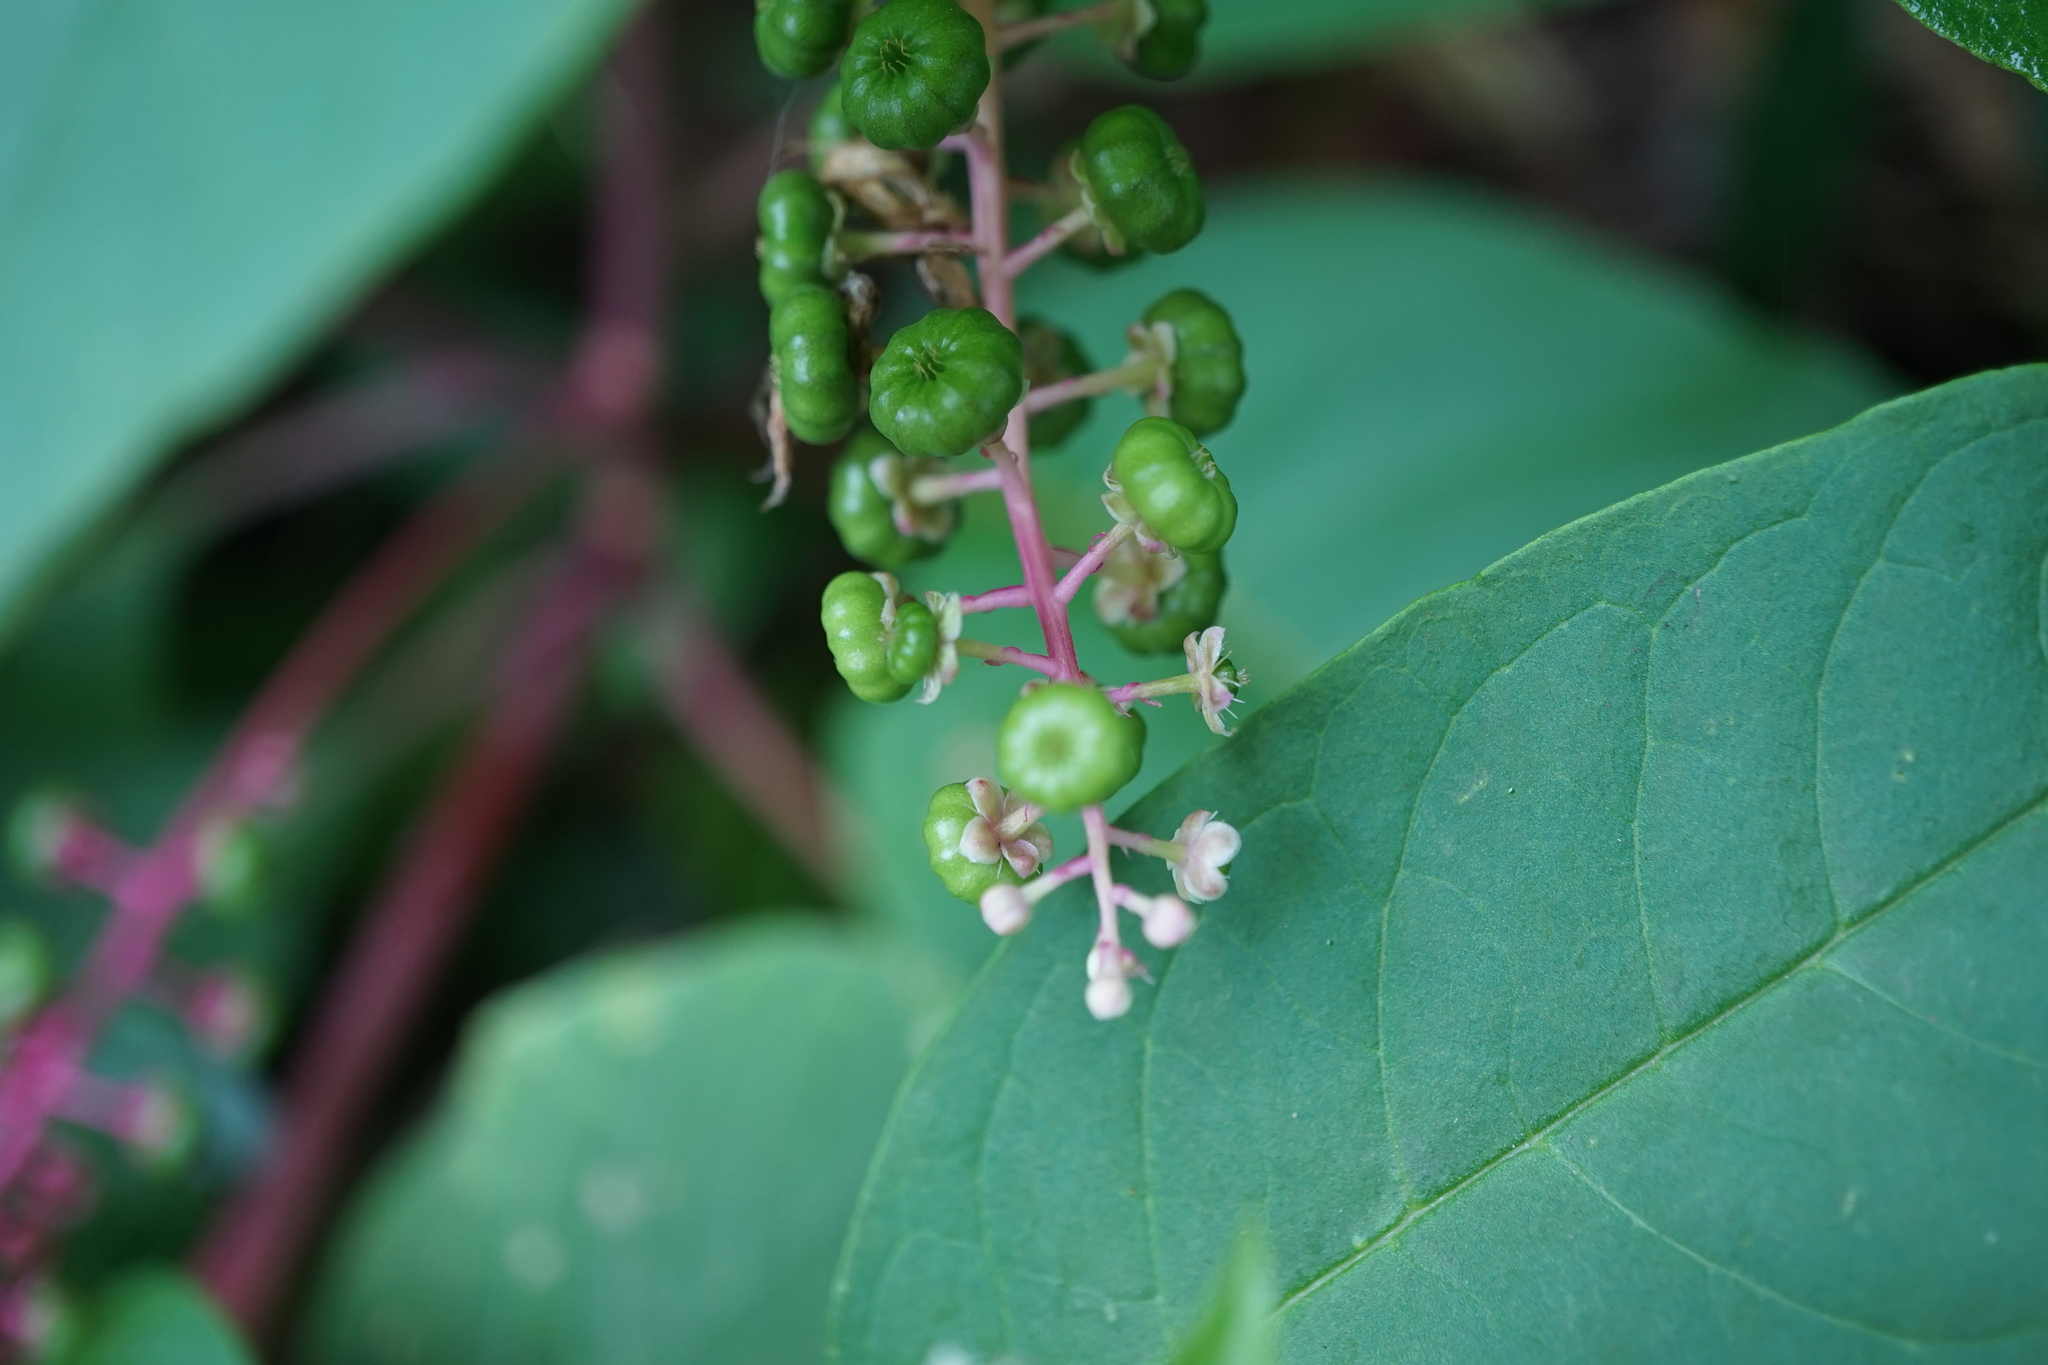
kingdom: Plantae
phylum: Tracheophyta
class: Magnoliopsida
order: Caryophyllales
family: Phytolaccaceae
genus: Phytolacca
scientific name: Phytolacca americana
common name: American pokeweed
